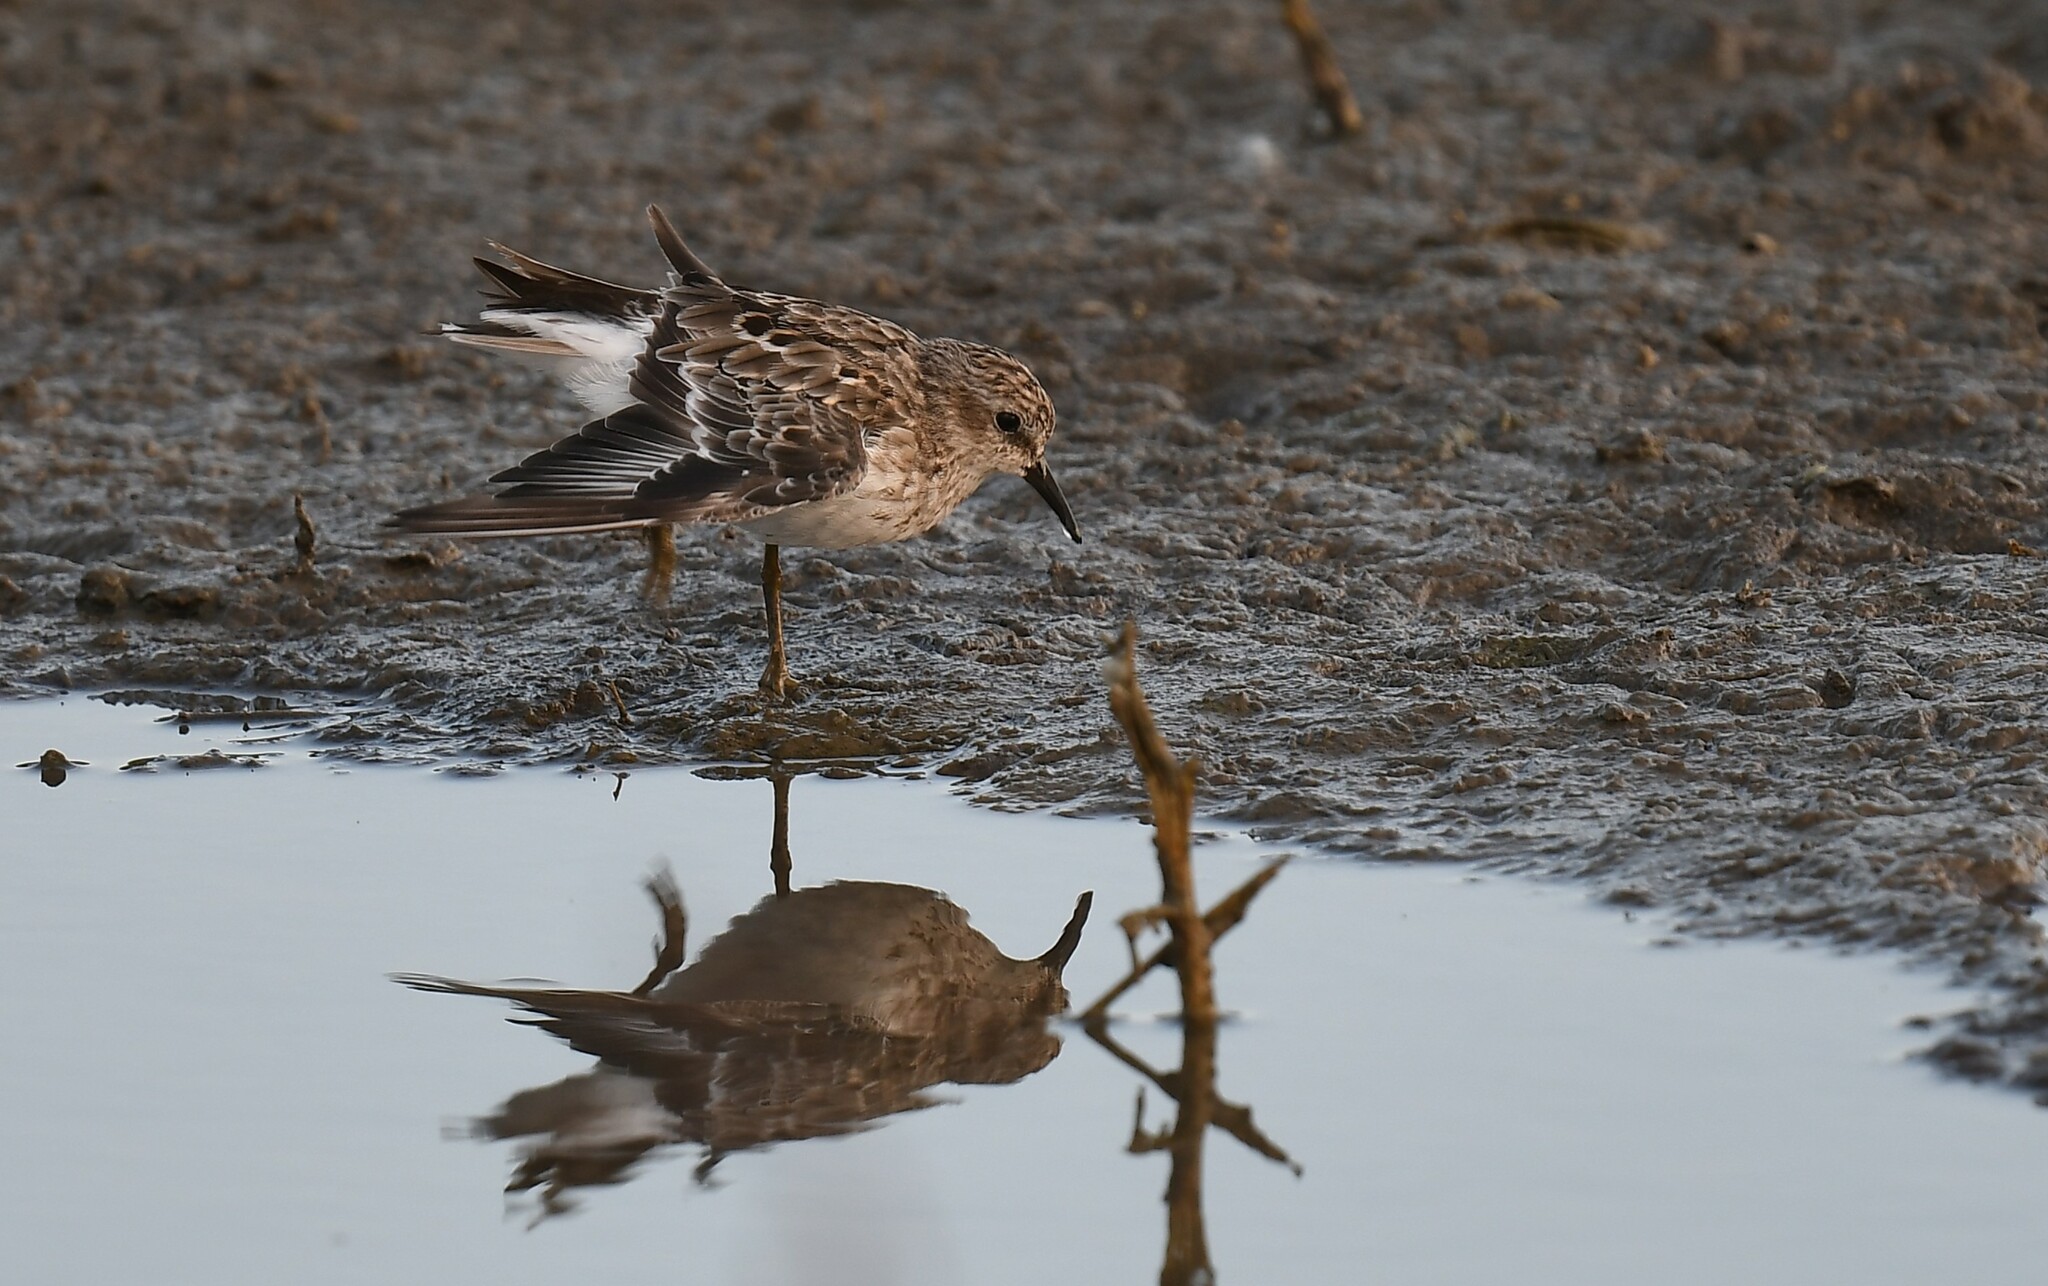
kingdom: Animalia
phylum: Chordata
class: Aves
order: Charadriiformes
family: Scolopacidae
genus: Calidris
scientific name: Calidris minutilla
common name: Least sandpiper
